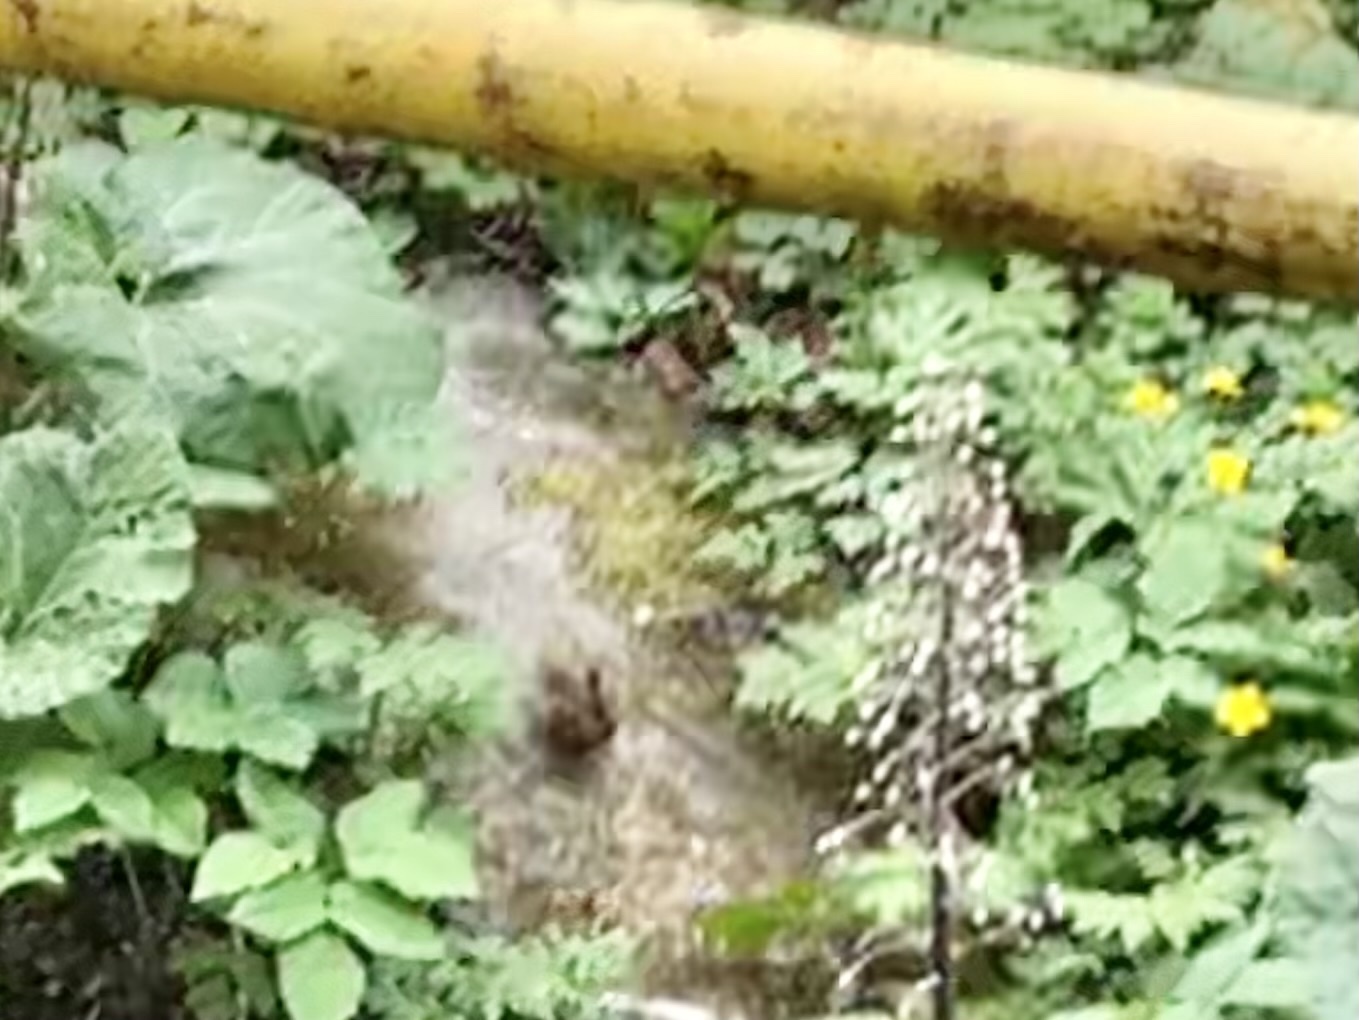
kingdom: Animalia
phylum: Chordata
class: Aves
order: Passeriformes
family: Troglodytidae
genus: Troglodytes
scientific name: Troglodytes troglodytes
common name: Eurasian wren
